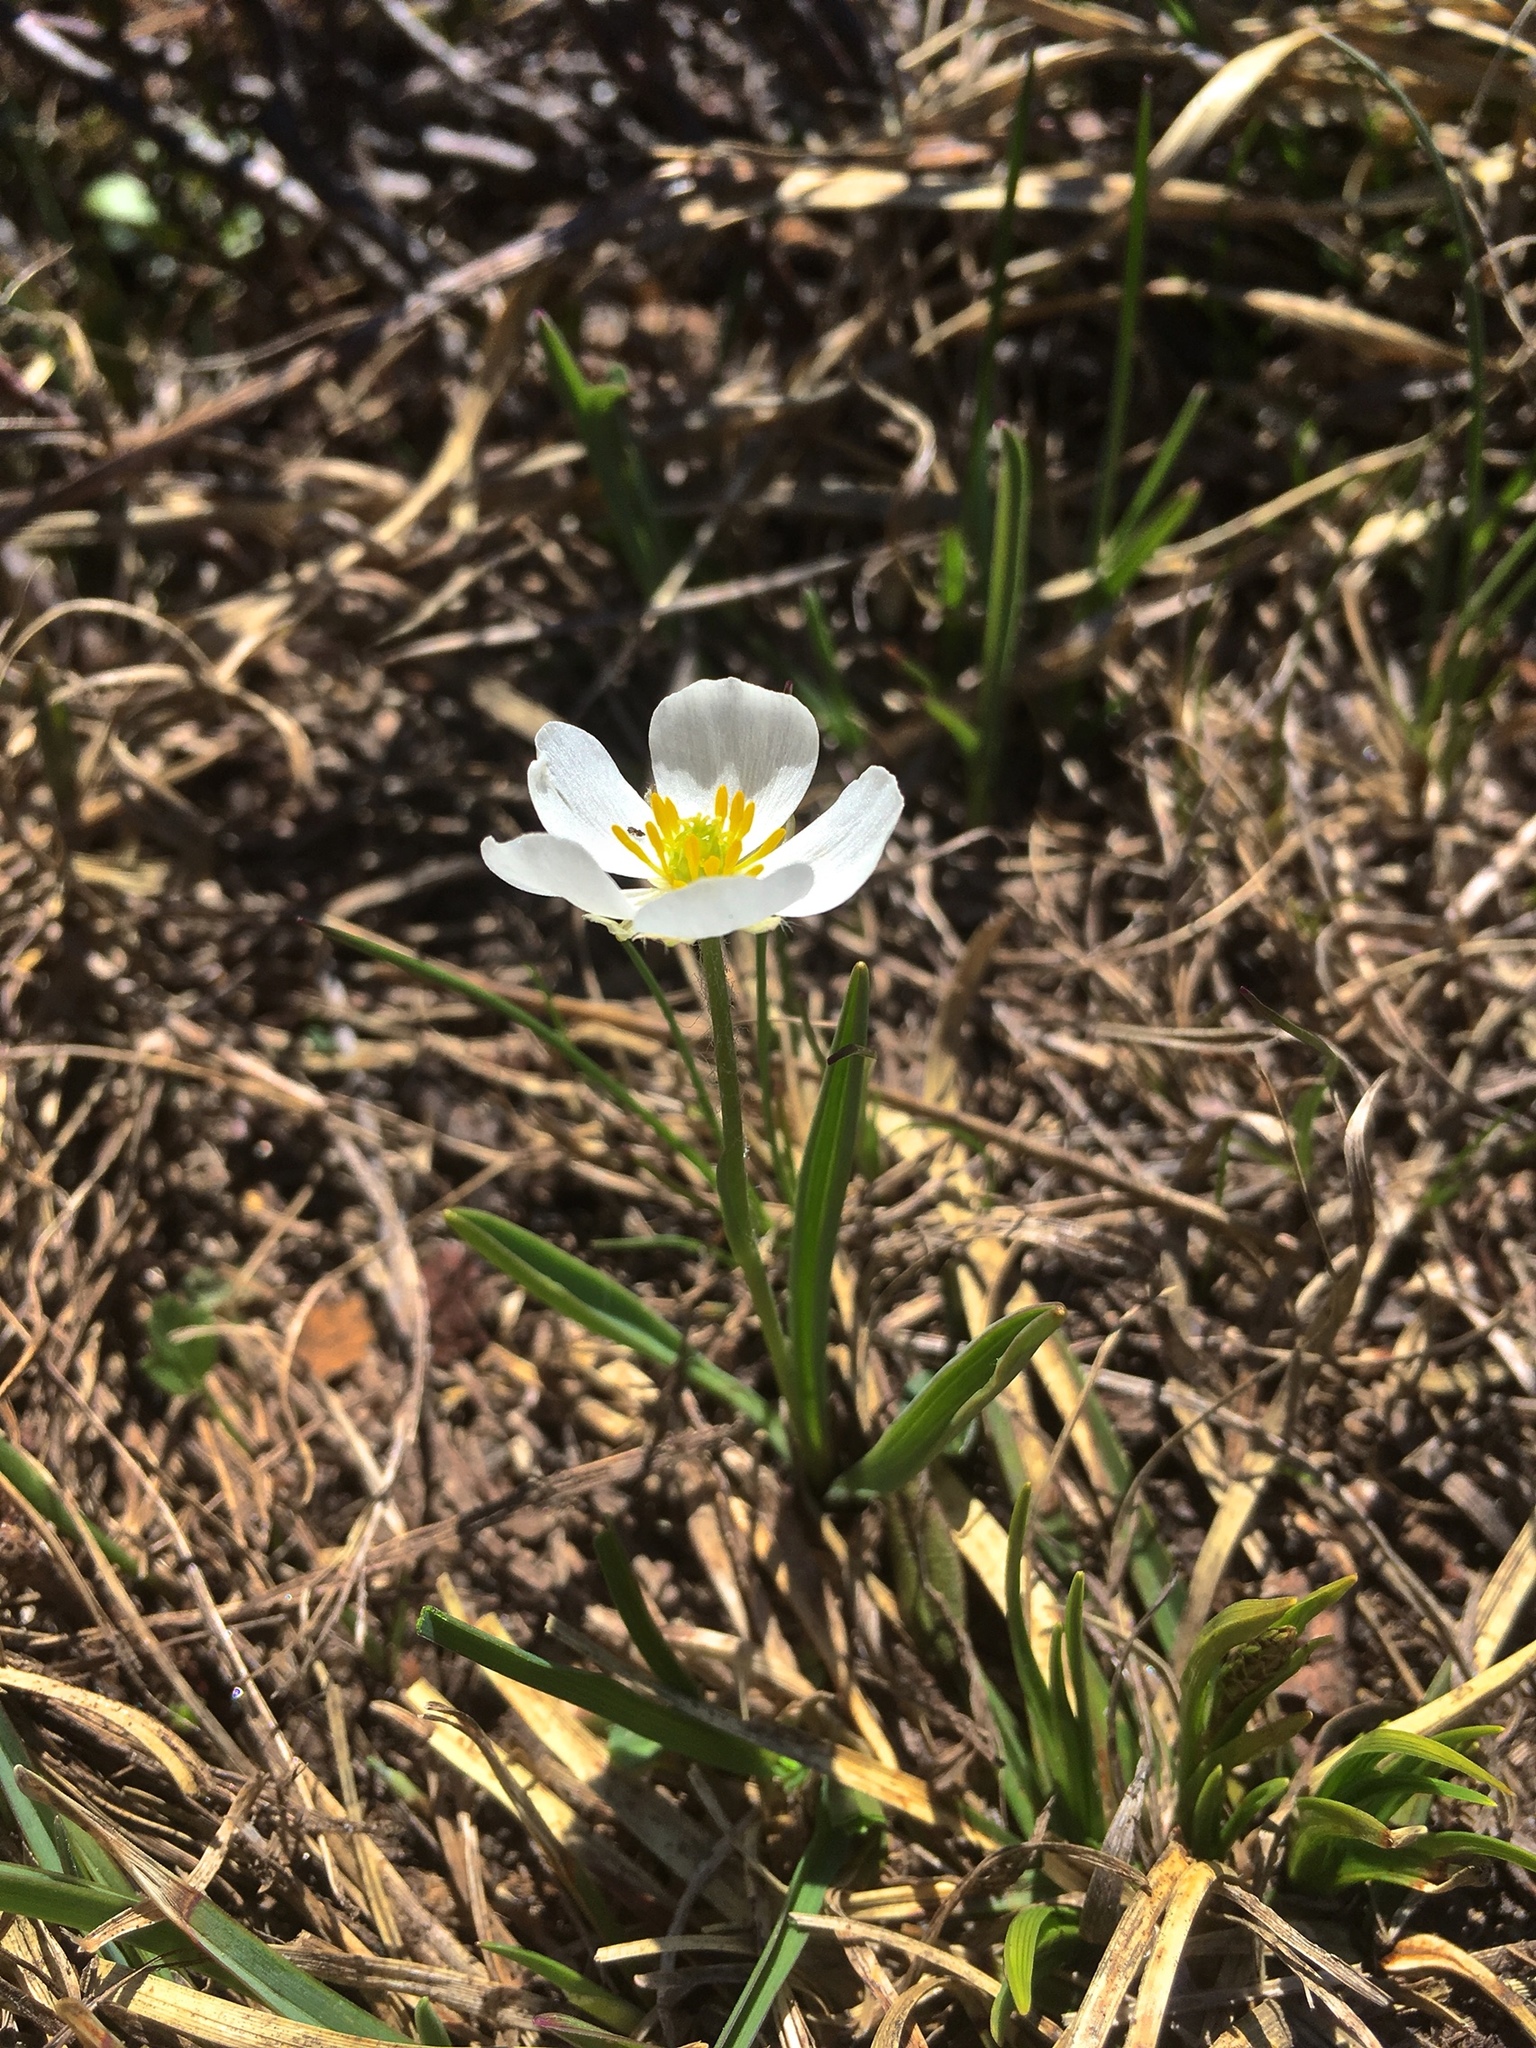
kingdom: Plantae
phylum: Tracheophyta
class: Magnoliopsida
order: Ranunculales
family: Ranunculaceae
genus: Ranunculus
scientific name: Ranunculus kuepferi
